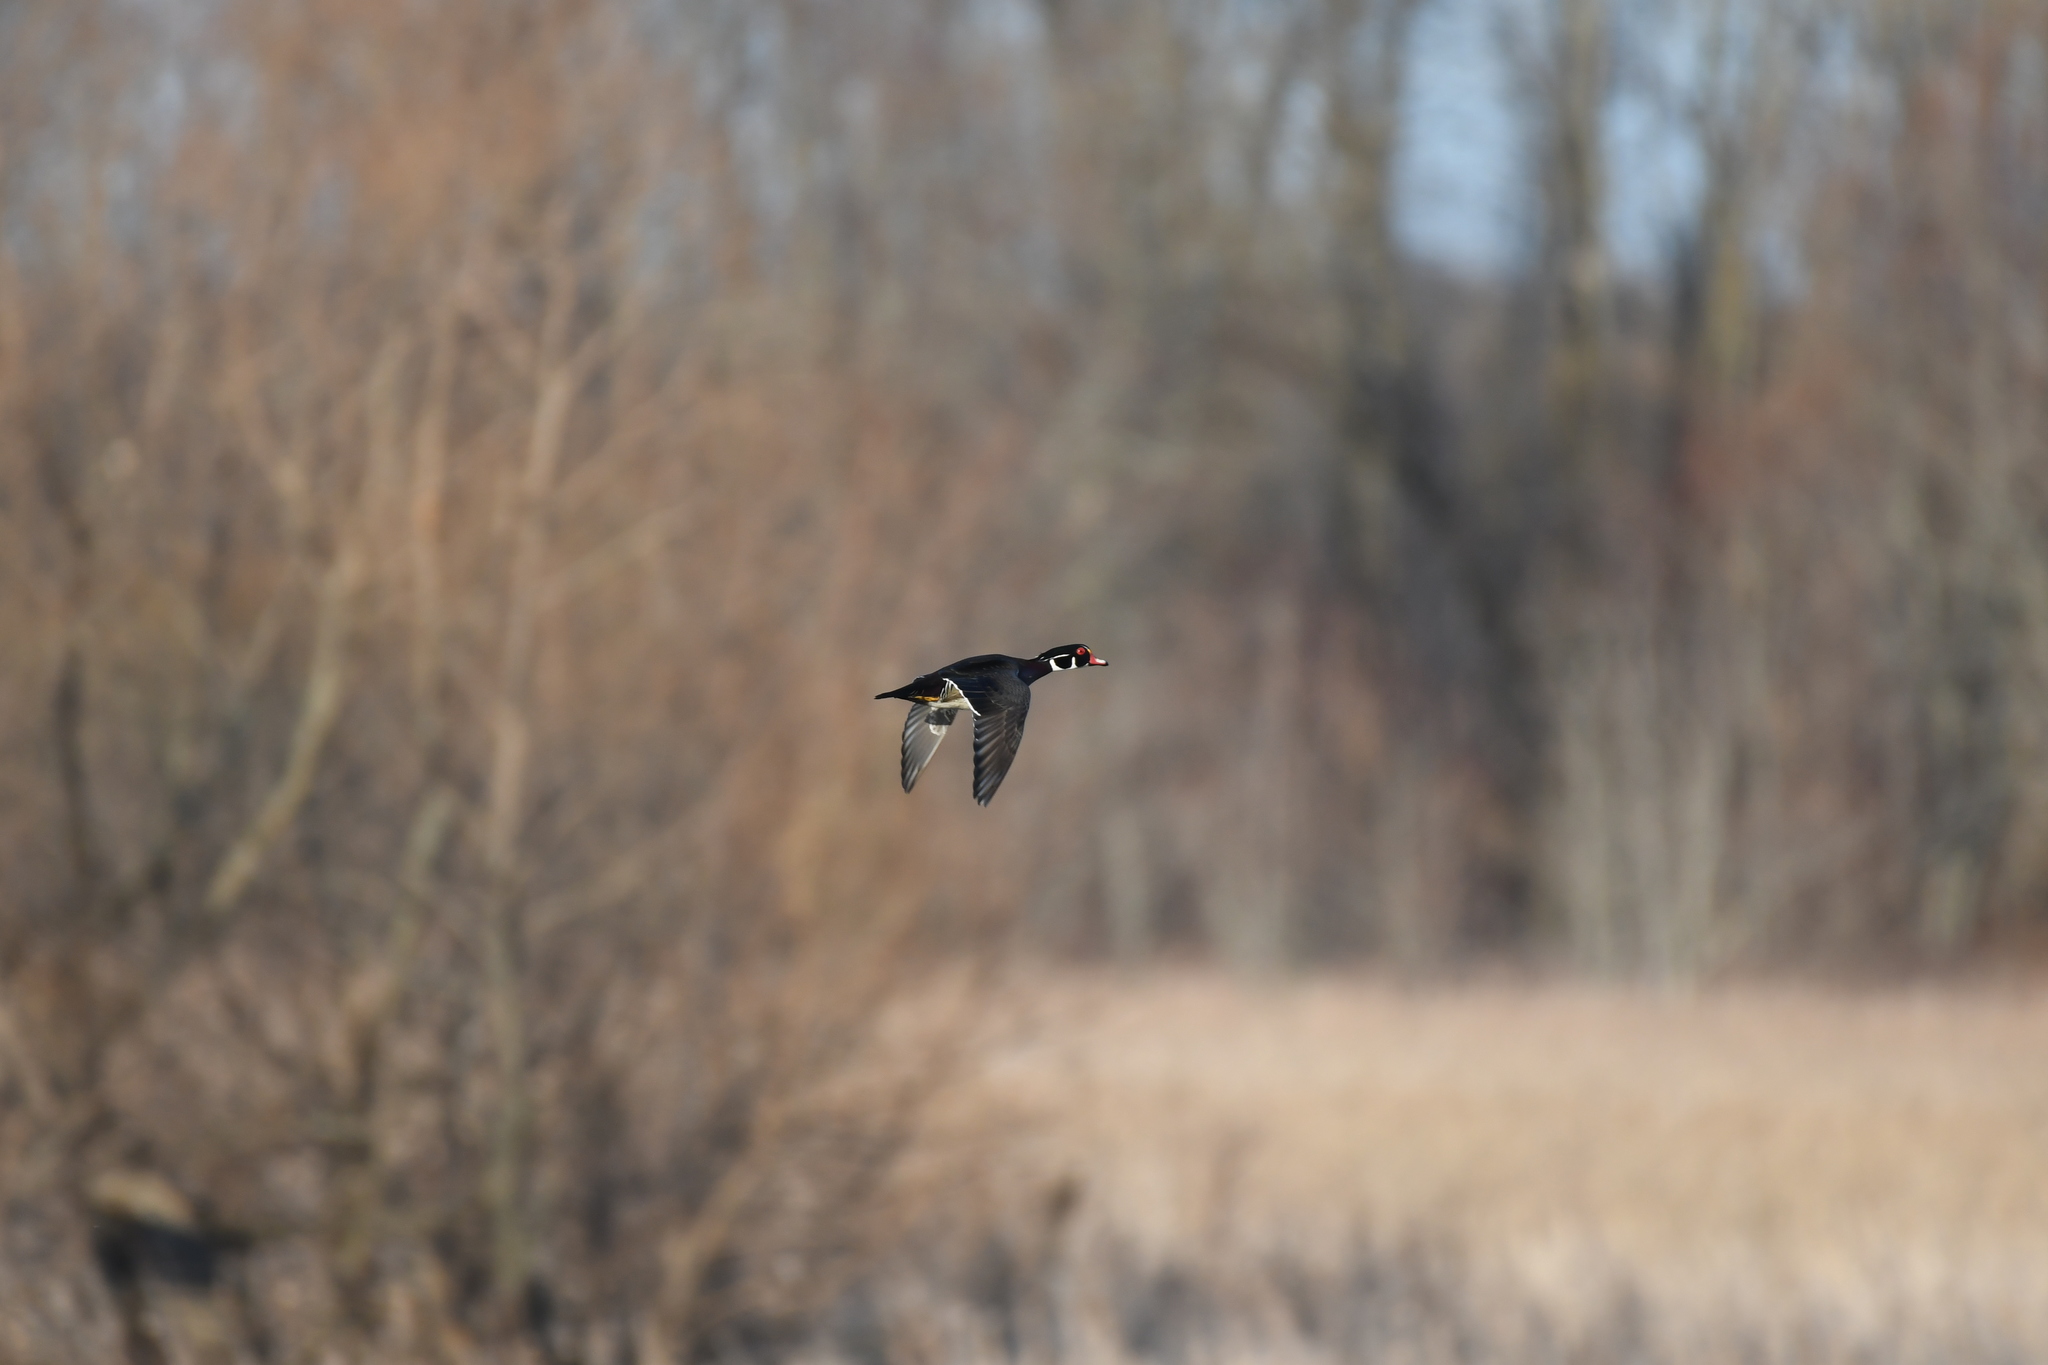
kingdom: Animalia
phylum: Chordata
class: Aves
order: Anseriformes
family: Anatidae
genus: Aix
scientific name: Aix sponsa
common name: Wood duck
